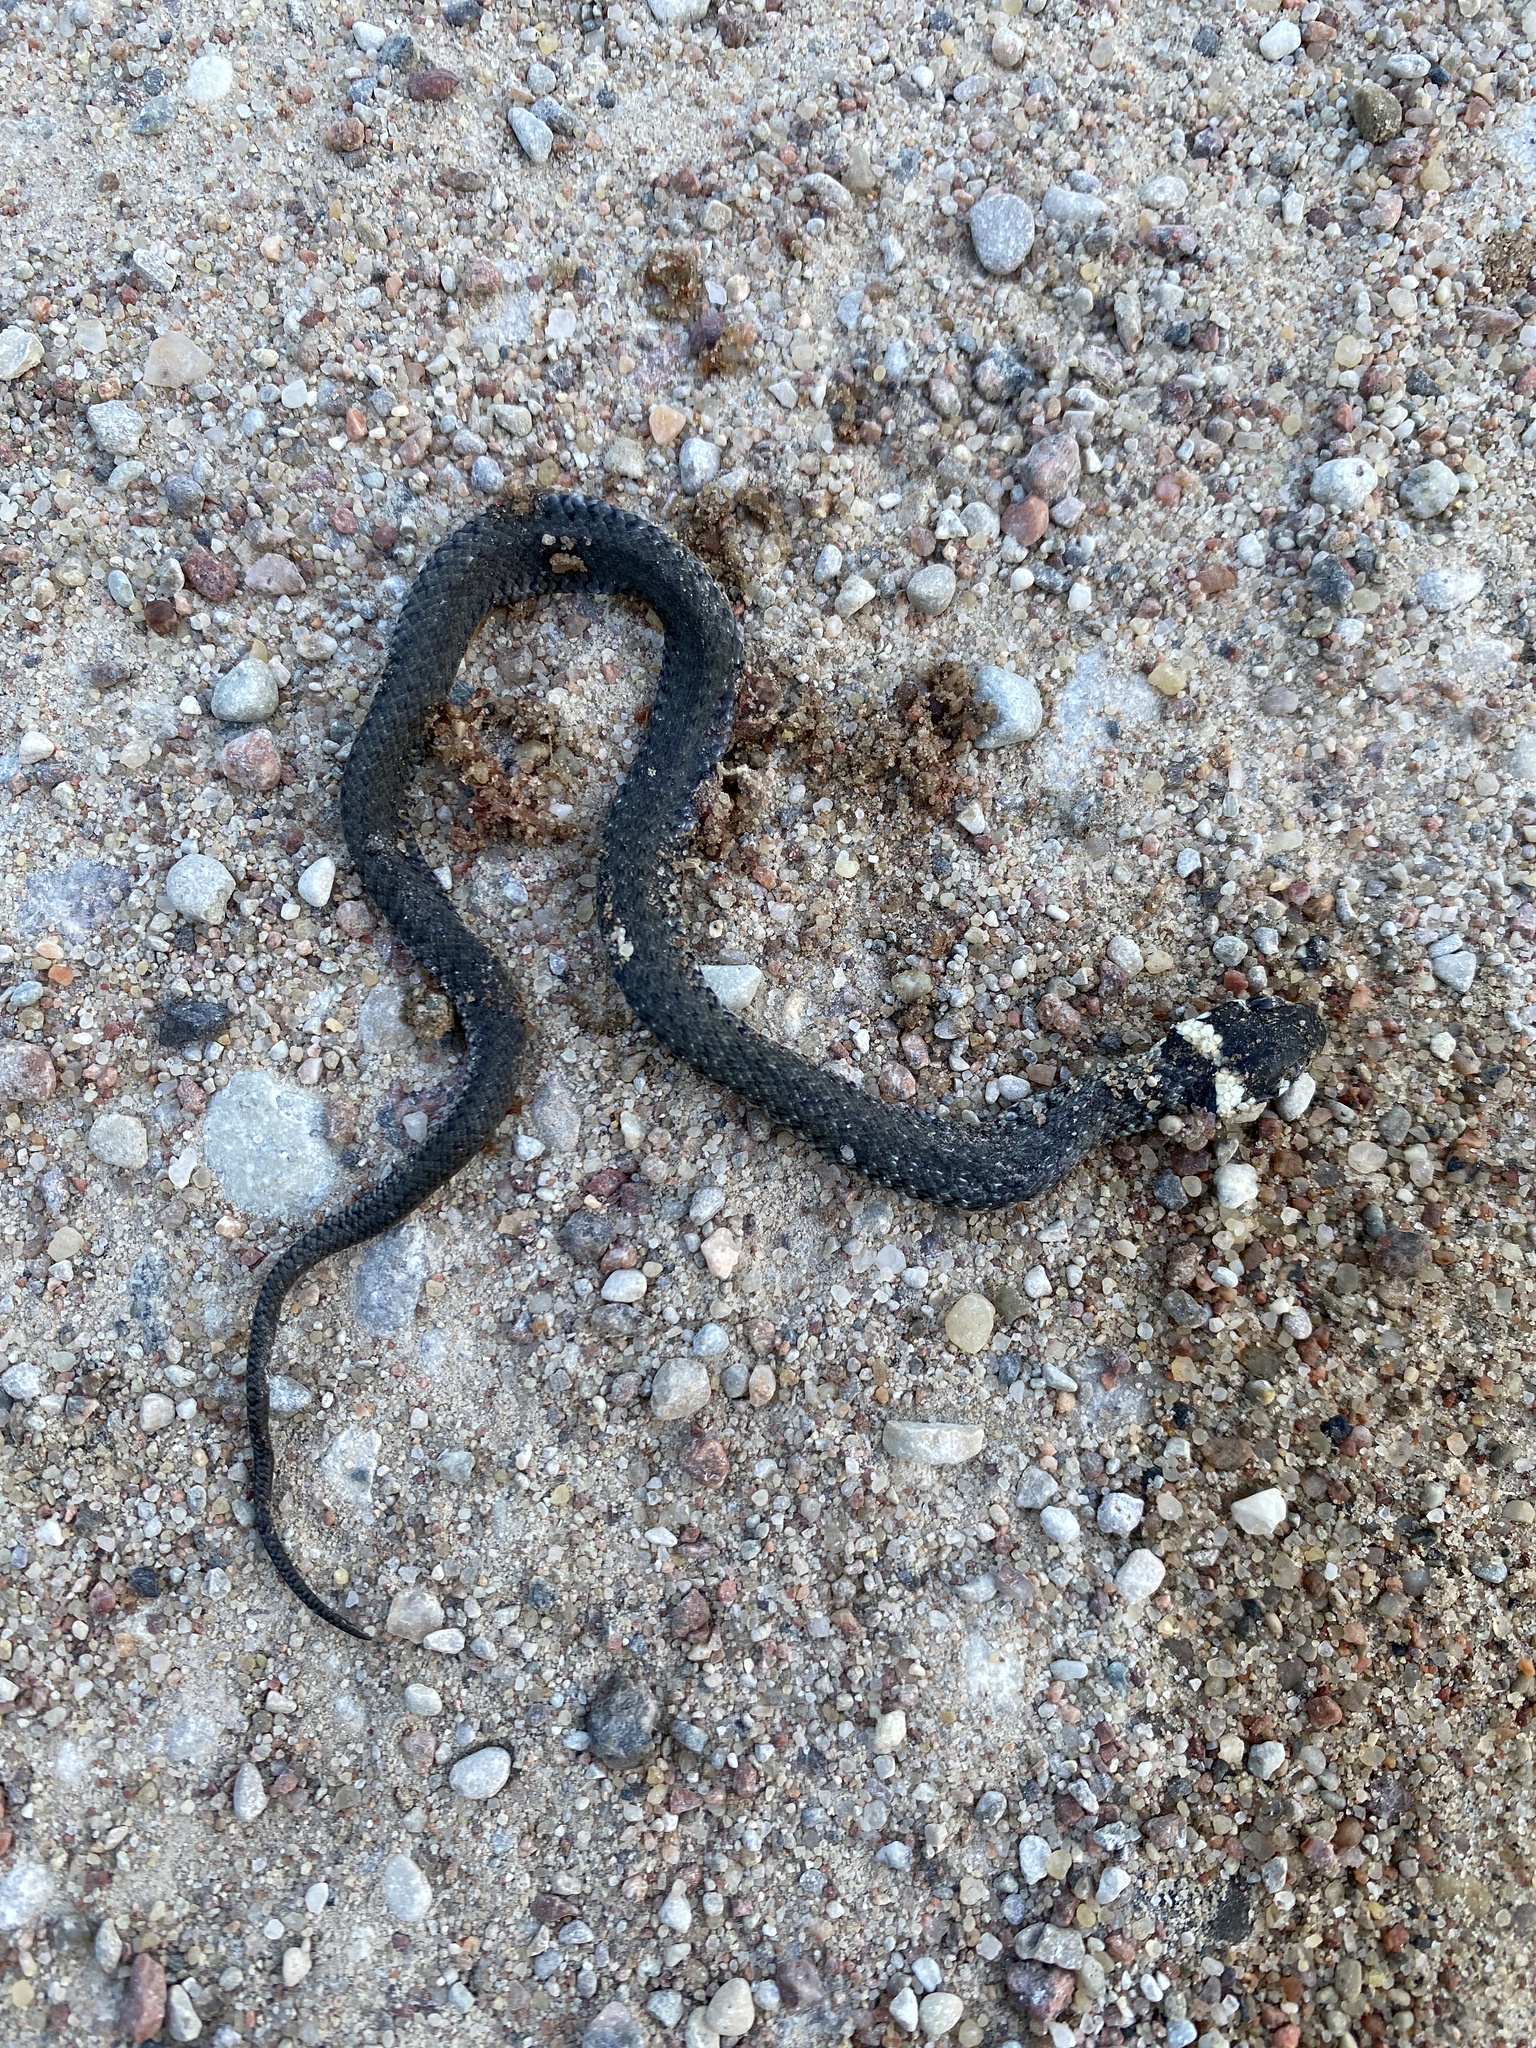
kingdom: Animalia
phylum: Chordata
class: Squamata
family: Colubridae
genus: Natrix
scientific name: Natrix natrix
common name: Grass snake
